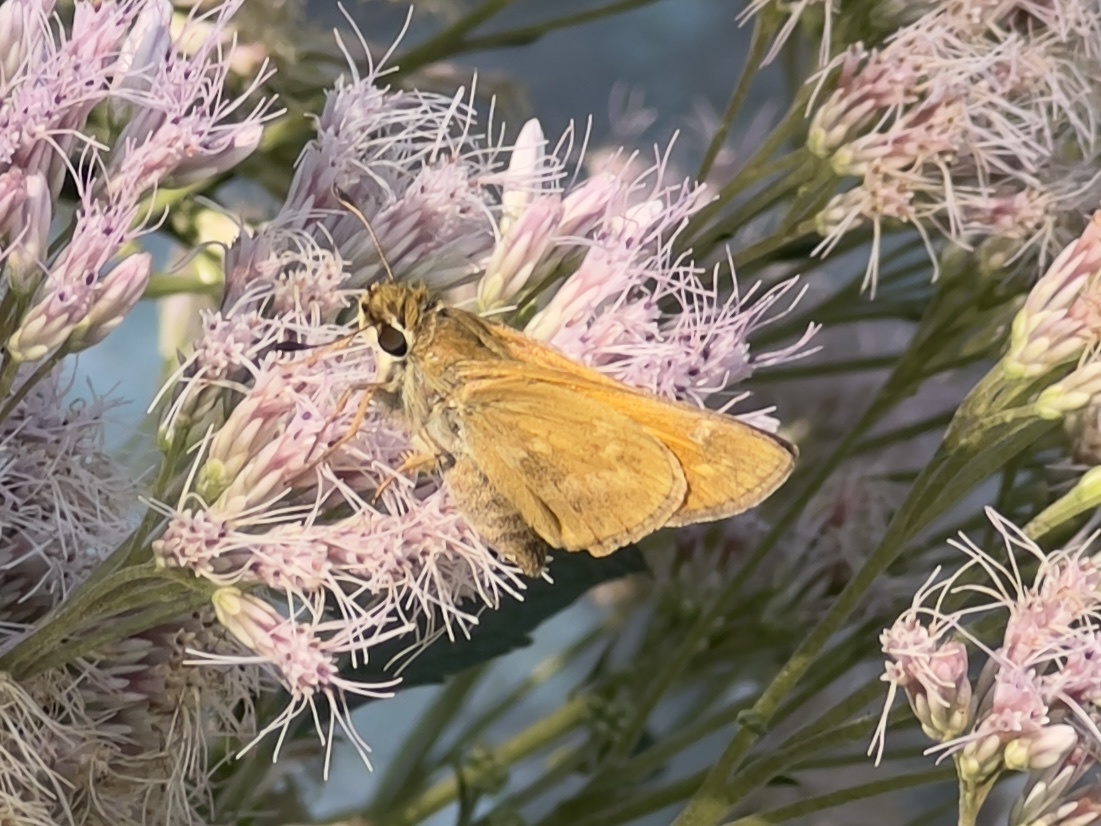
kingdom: Animalia
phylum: Arthropoda
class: Insecta
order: Lepidoptera
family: Hesperiidae
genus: Atalopedes
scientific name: Atalopedes
